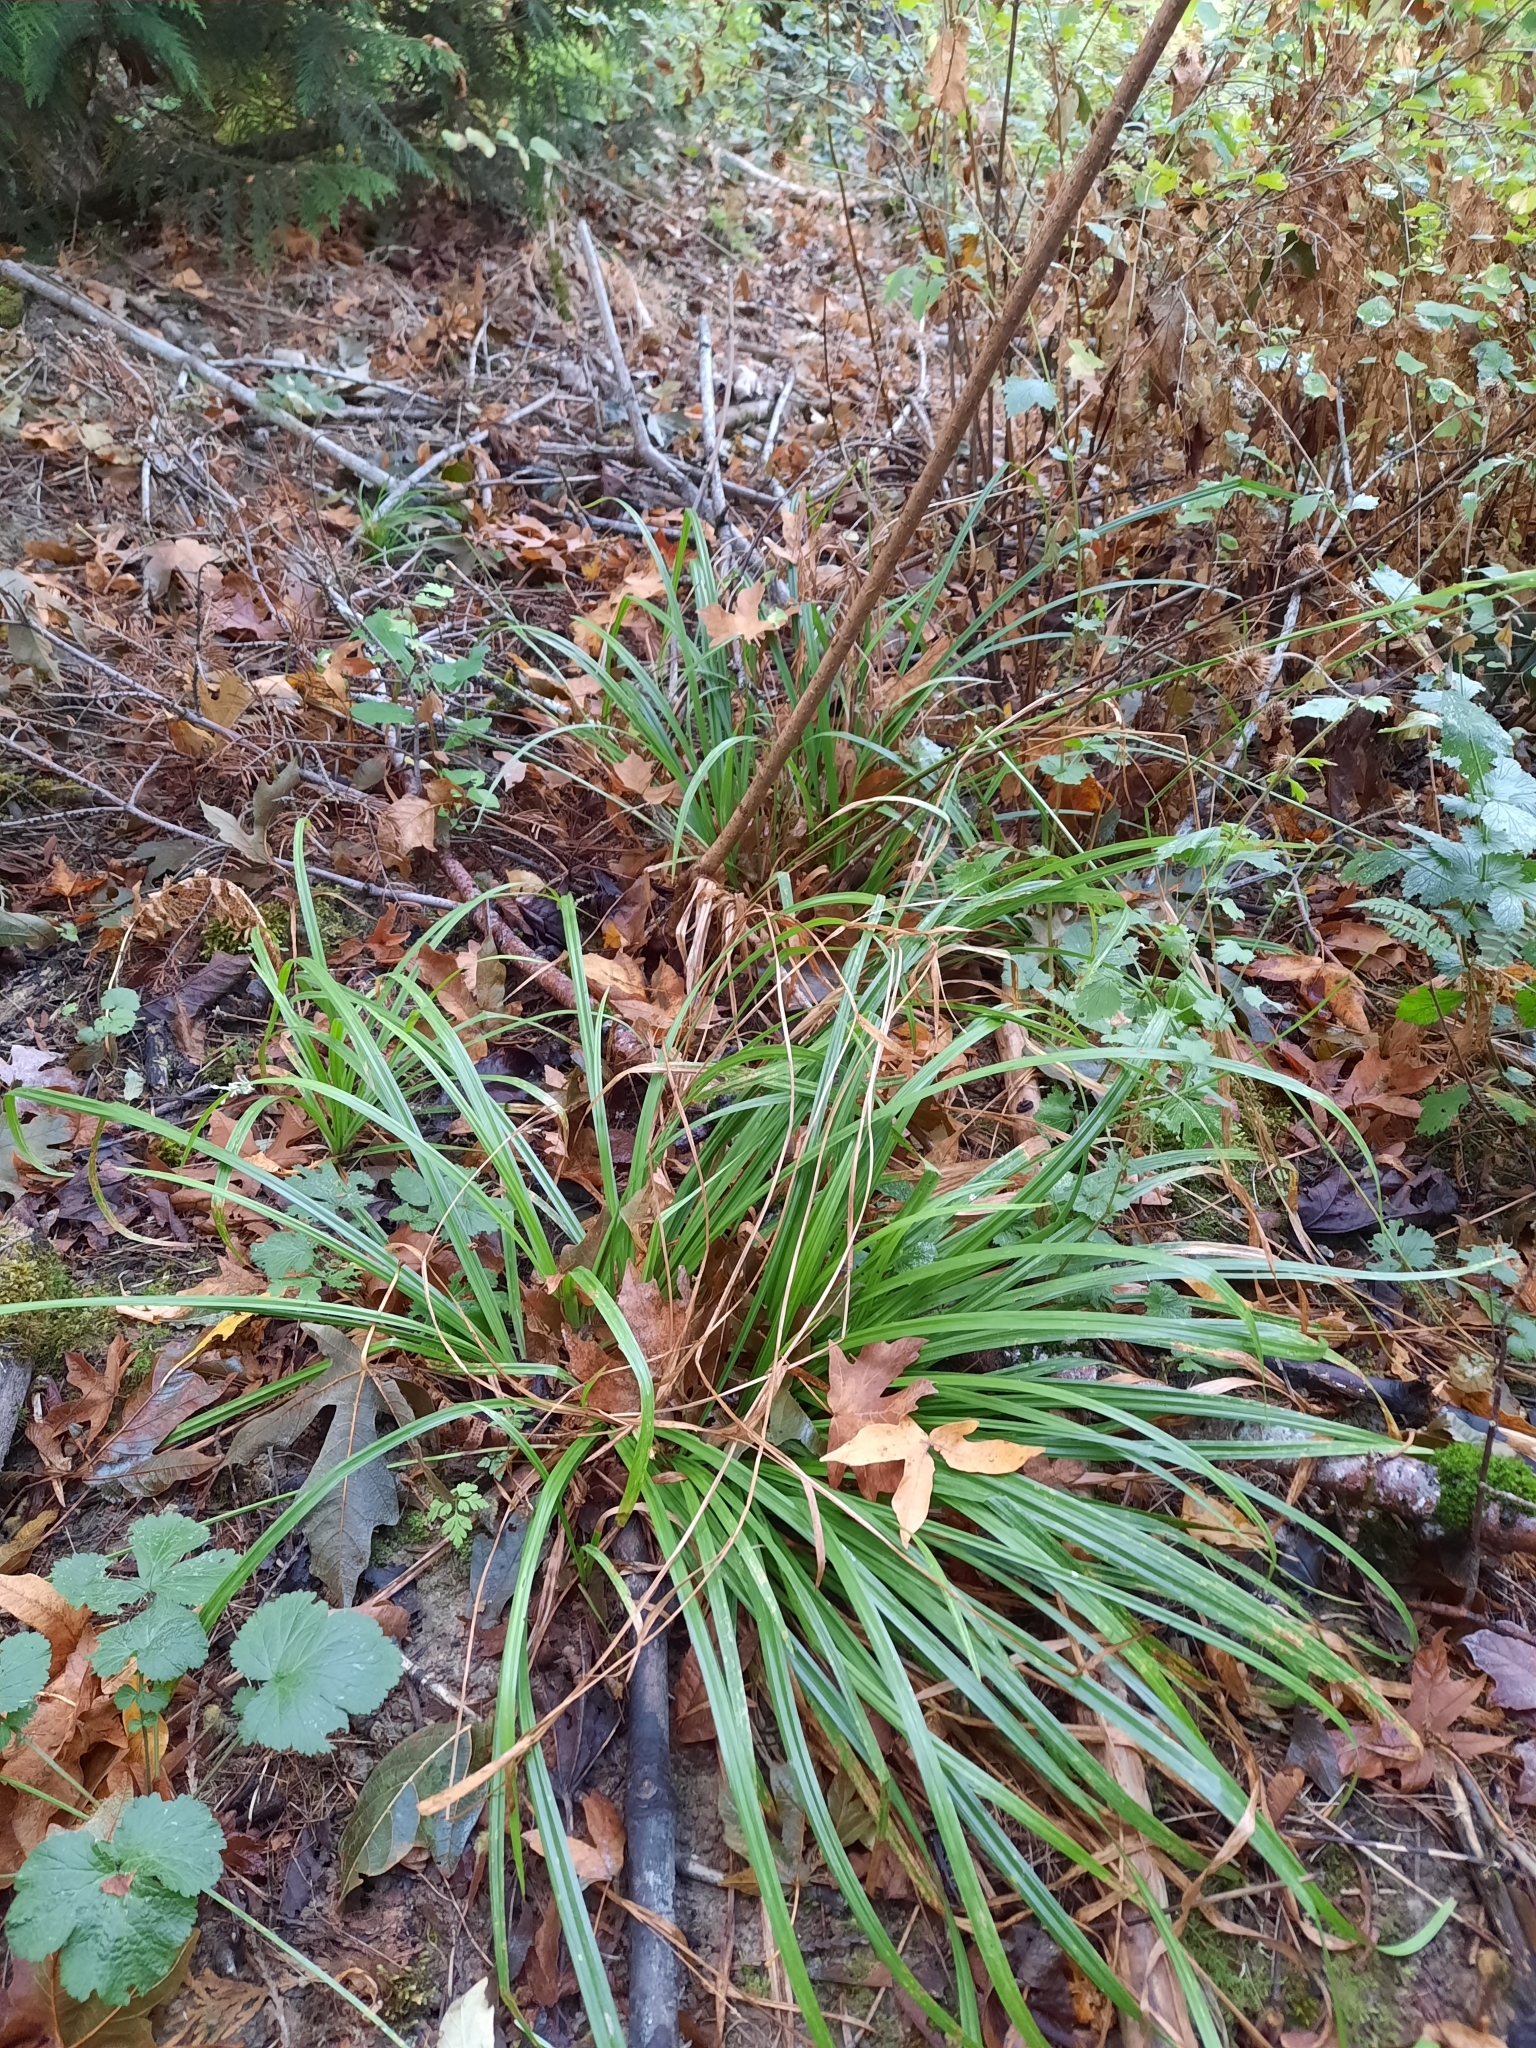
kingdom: Plantae
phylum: Tracheophyta
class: Liliopsida
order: Poales
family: Cyperaceae
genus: Carex
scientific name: Carex hendersonii
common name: Henderson's sedge
